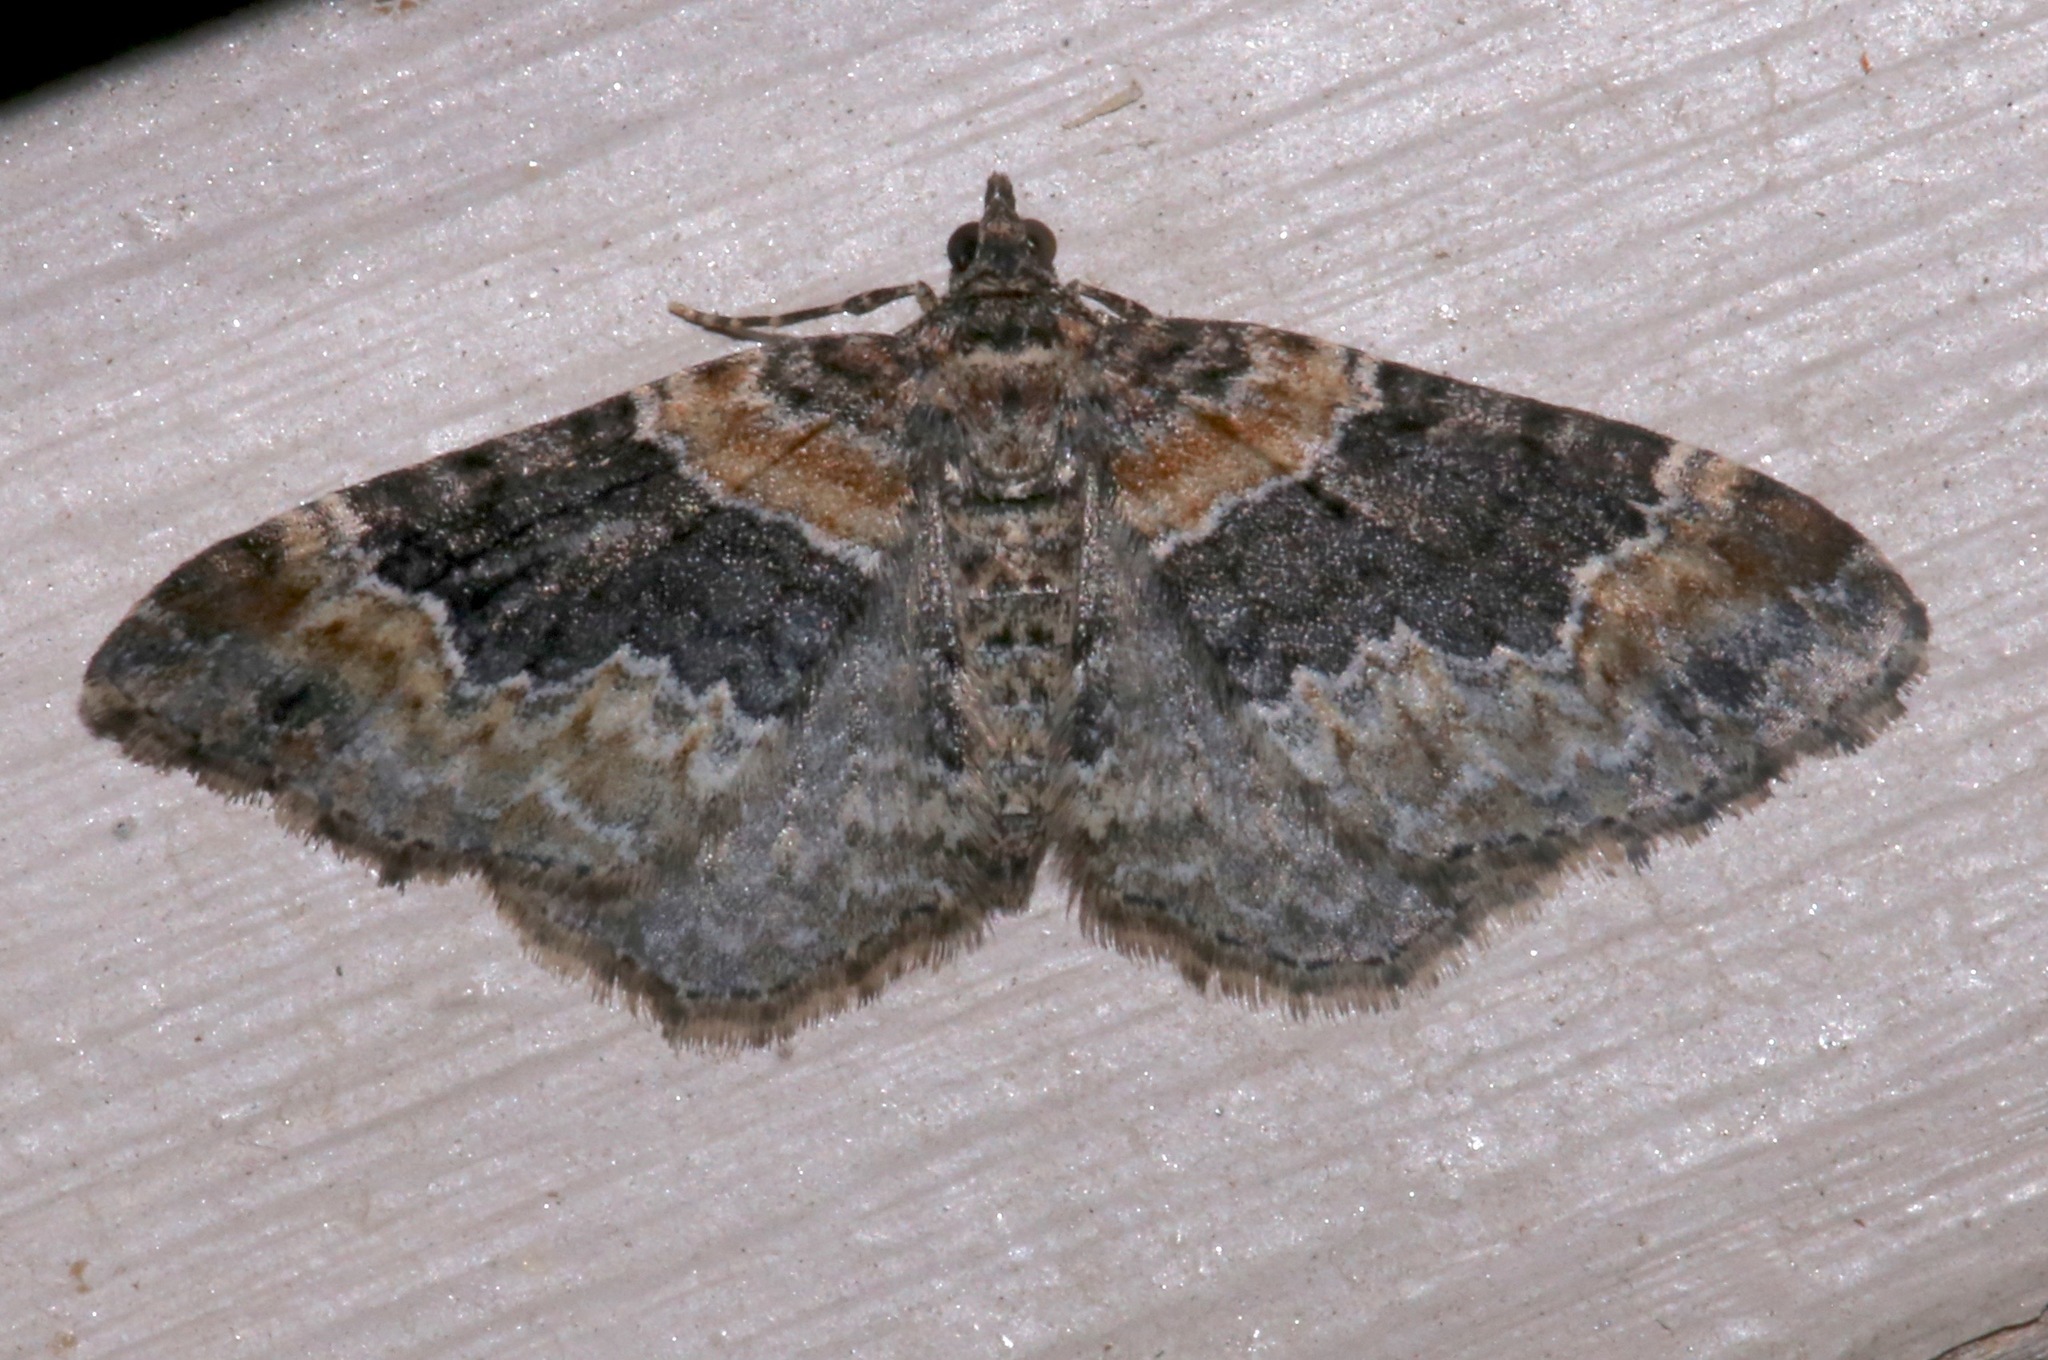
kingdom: Animalia
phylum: Arthropoda
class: Insecta
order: Lepidoptera
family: Geometridae
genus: Xanthorhoe
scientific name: Xanthorhoe ferrugata
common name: Dark-barred twin-spot carpet
